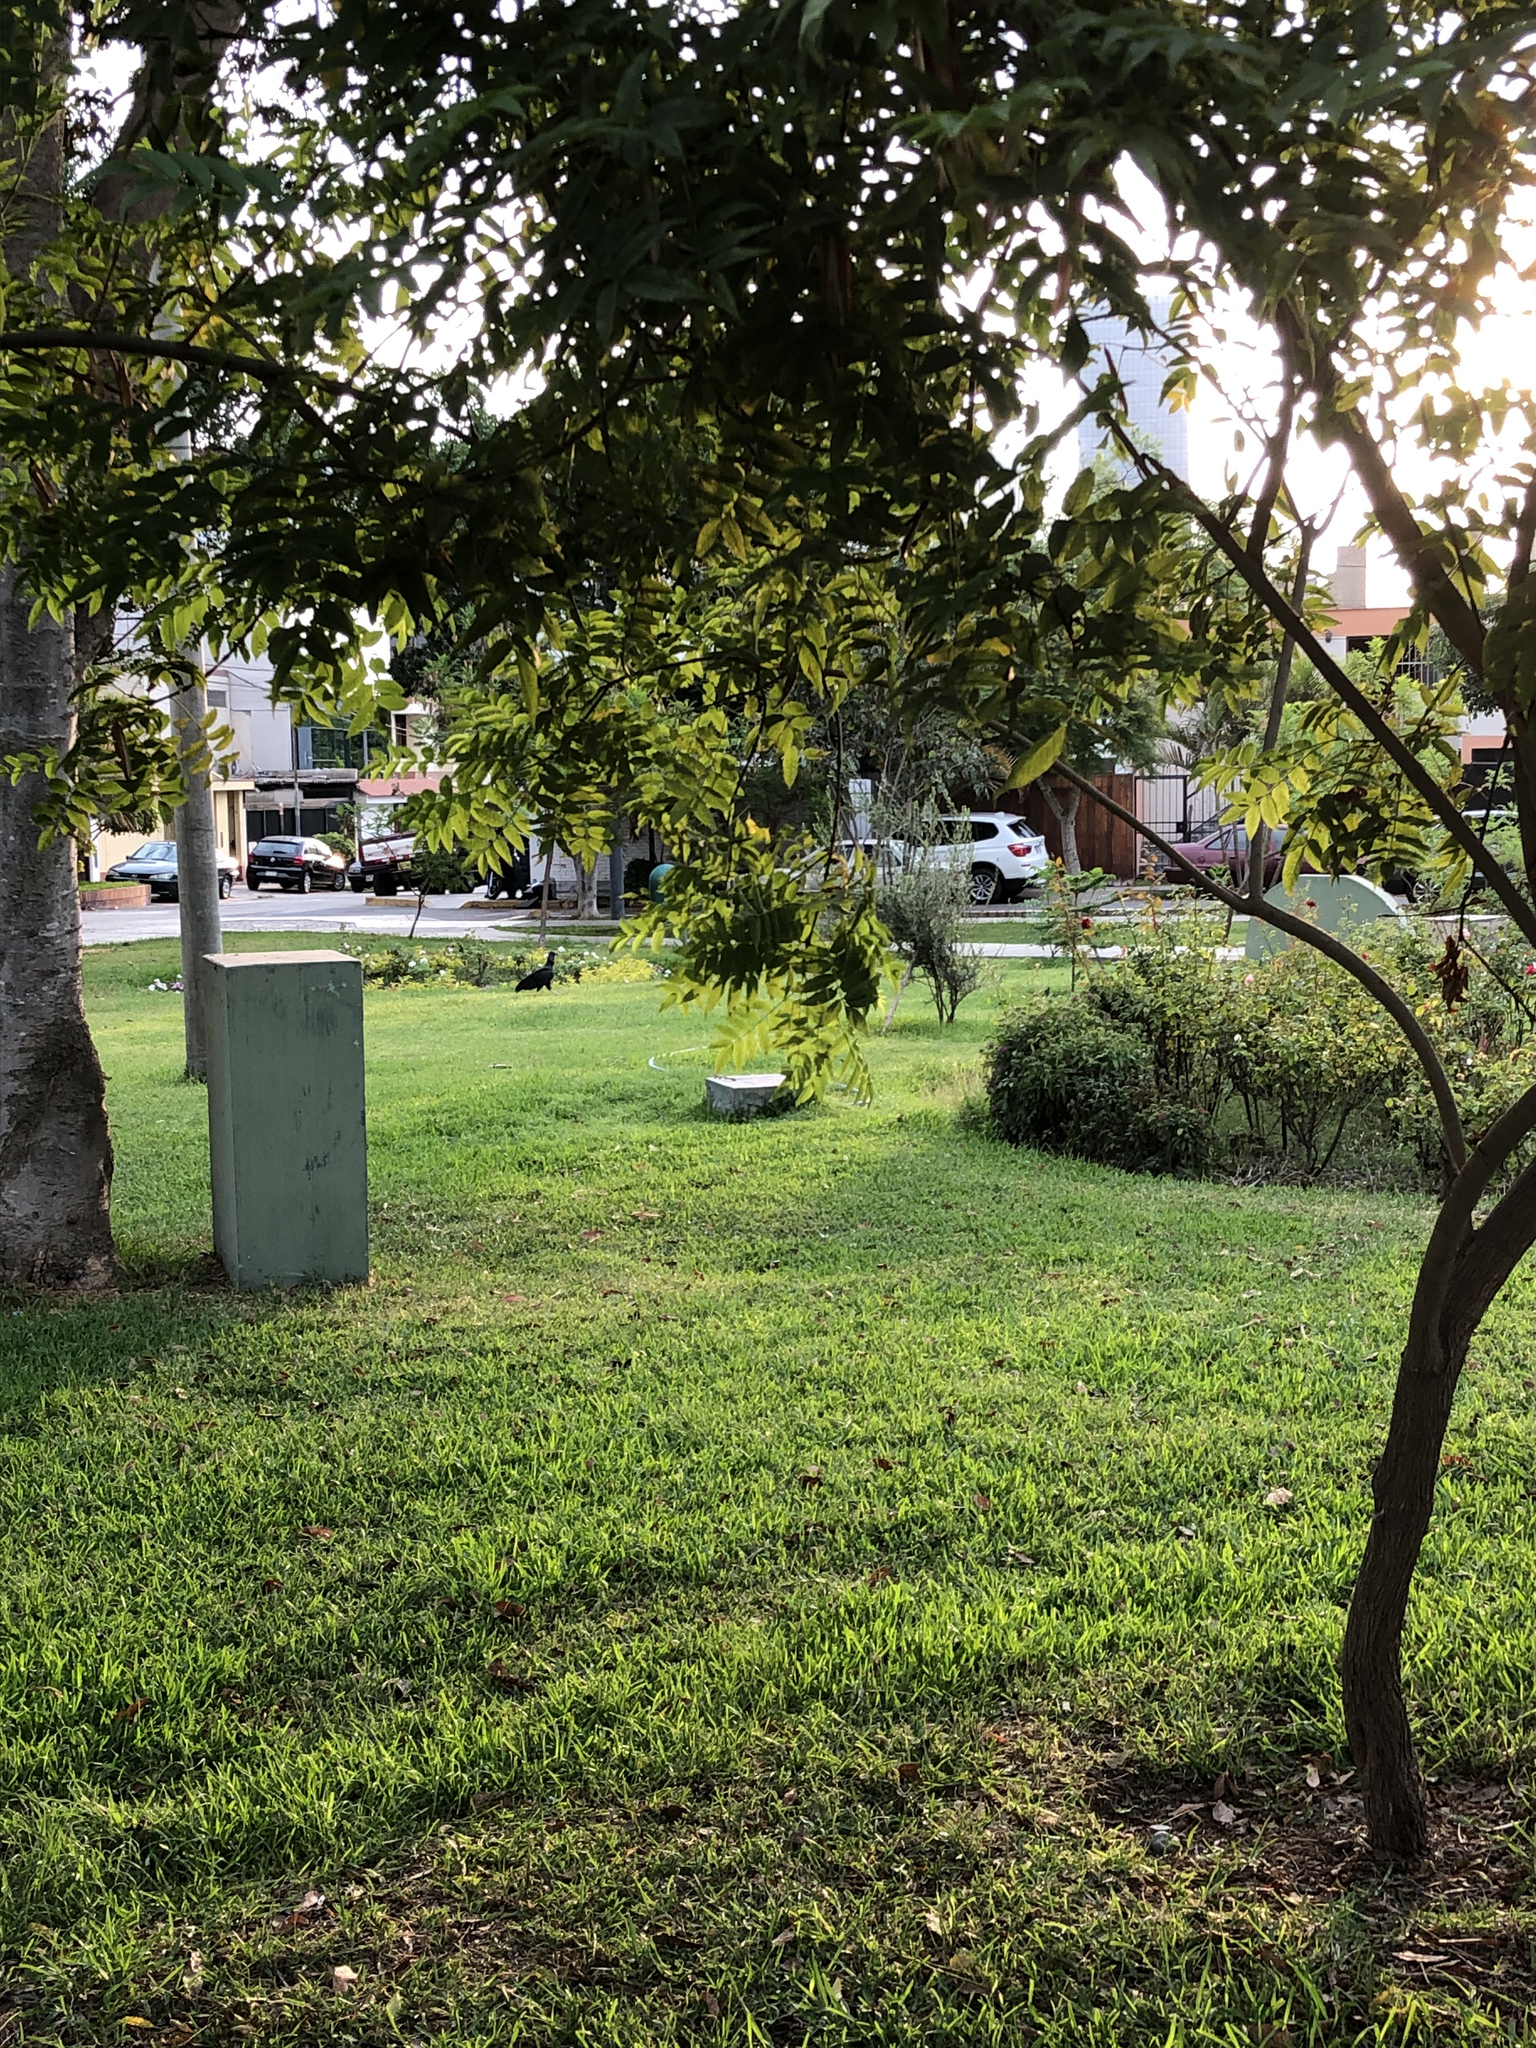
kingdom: Animalia
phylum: Chordata
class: Aves
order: Accipitriformes
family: Cathartidae
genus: Coragyps
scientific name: Coragyps atratus
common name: Black vulture
